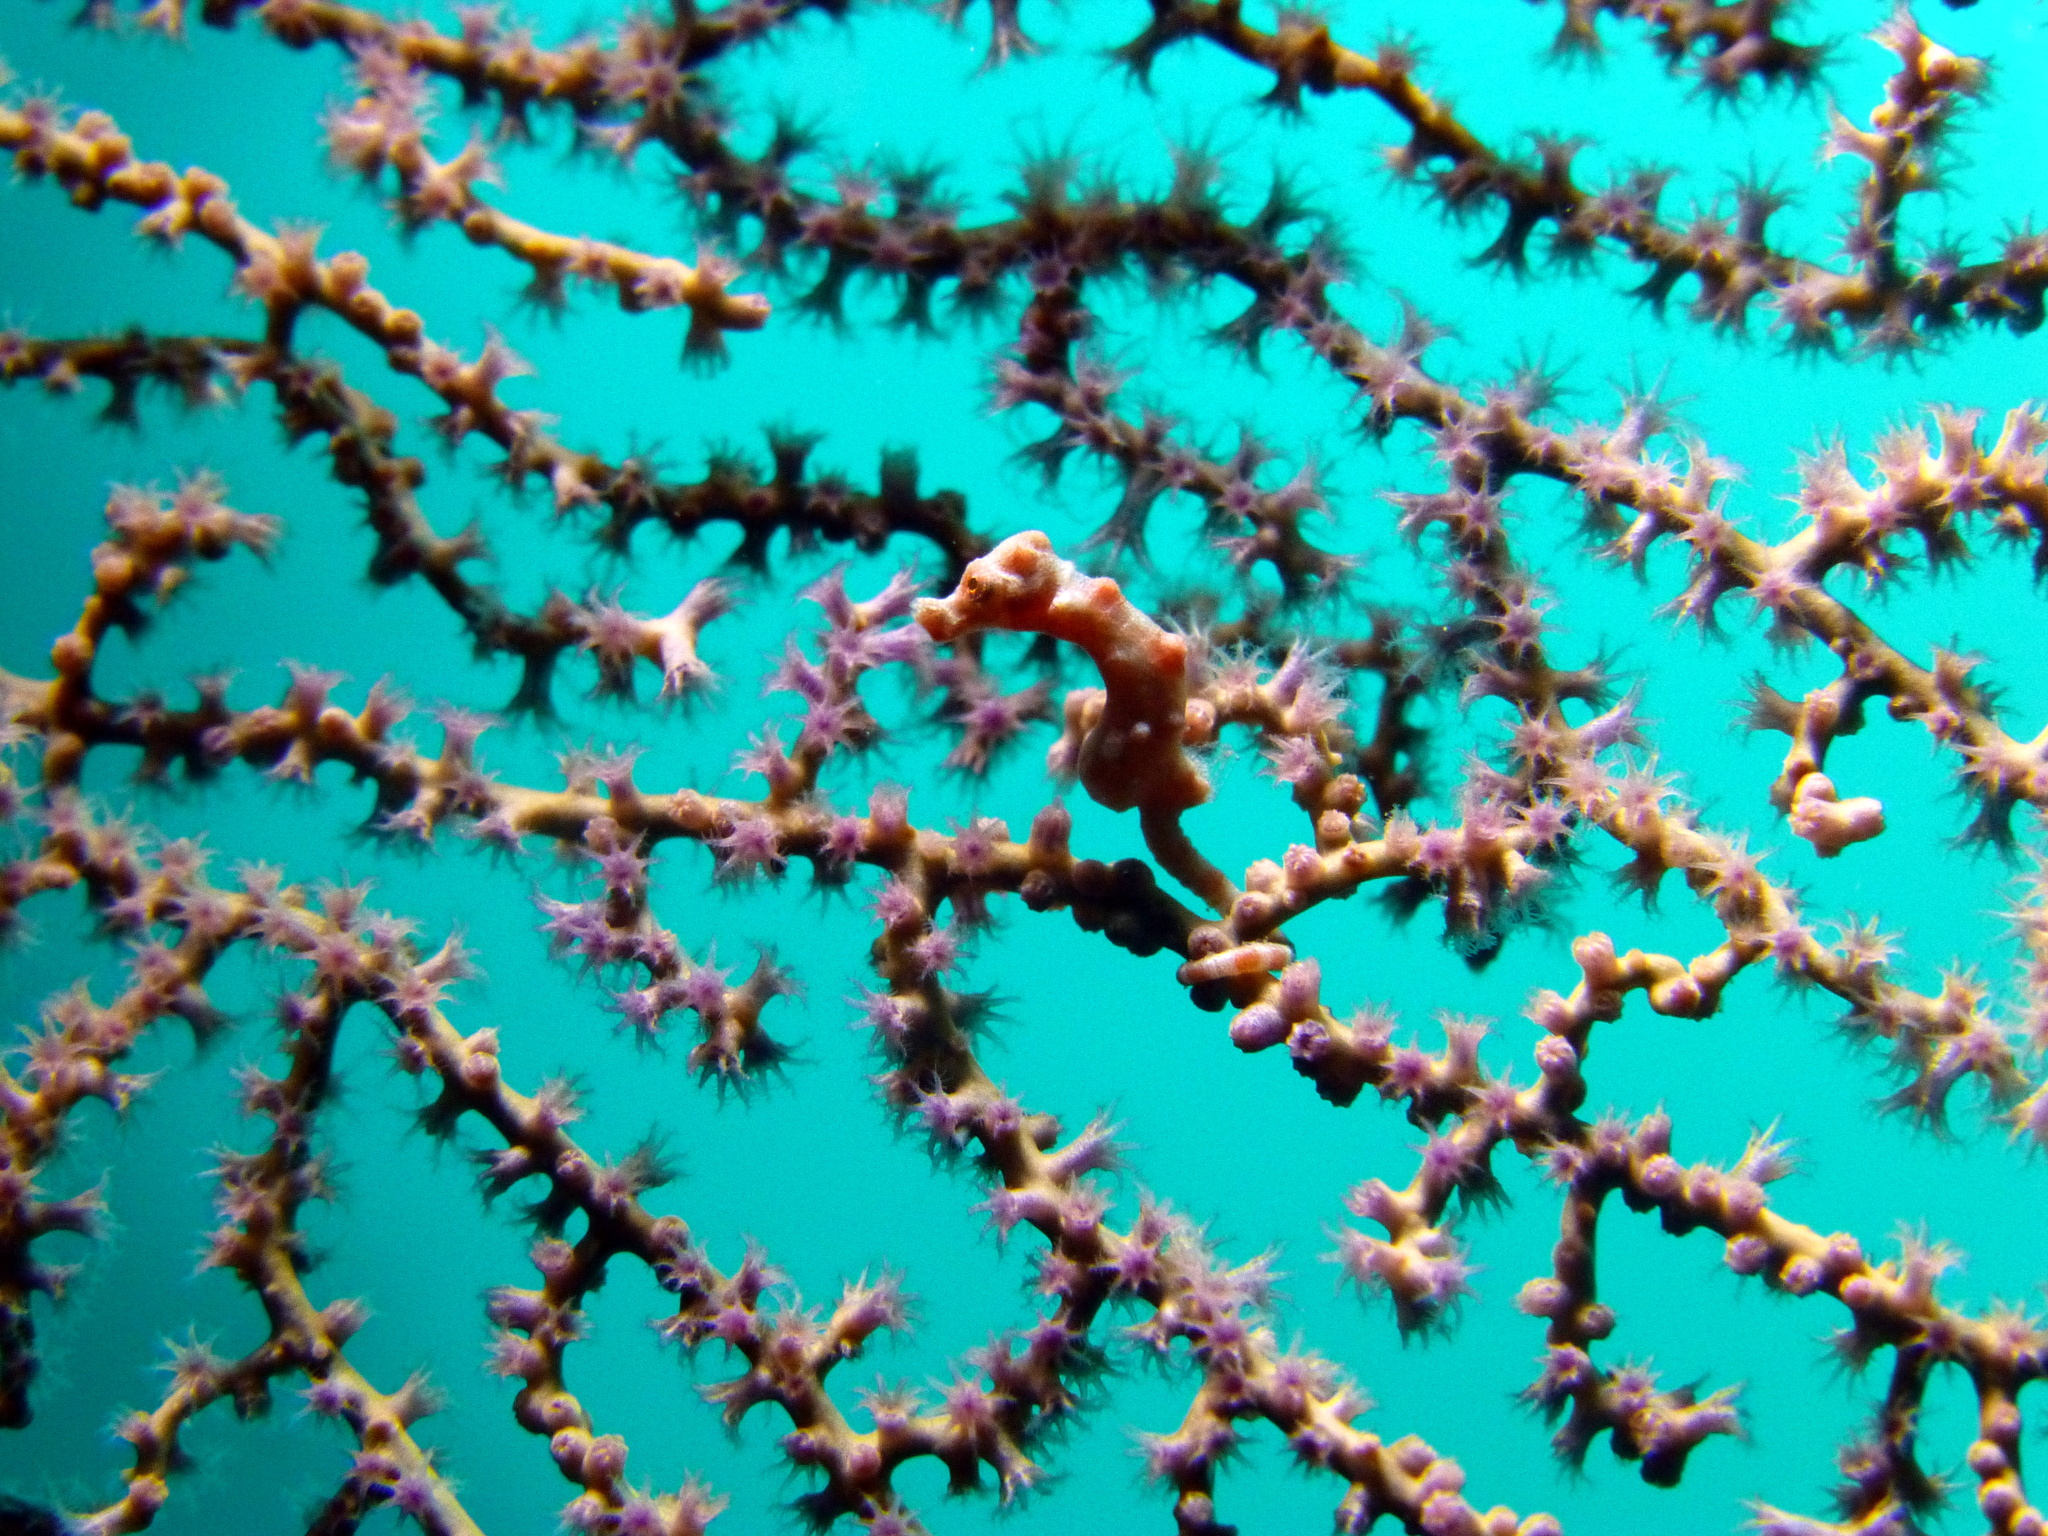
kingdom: Animalia
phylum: Chordata
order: Syngnathiformes
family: Syngnathidae
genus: Hippocampus
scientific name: Hippocampus denise
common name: Denise's pygmy seahorse
